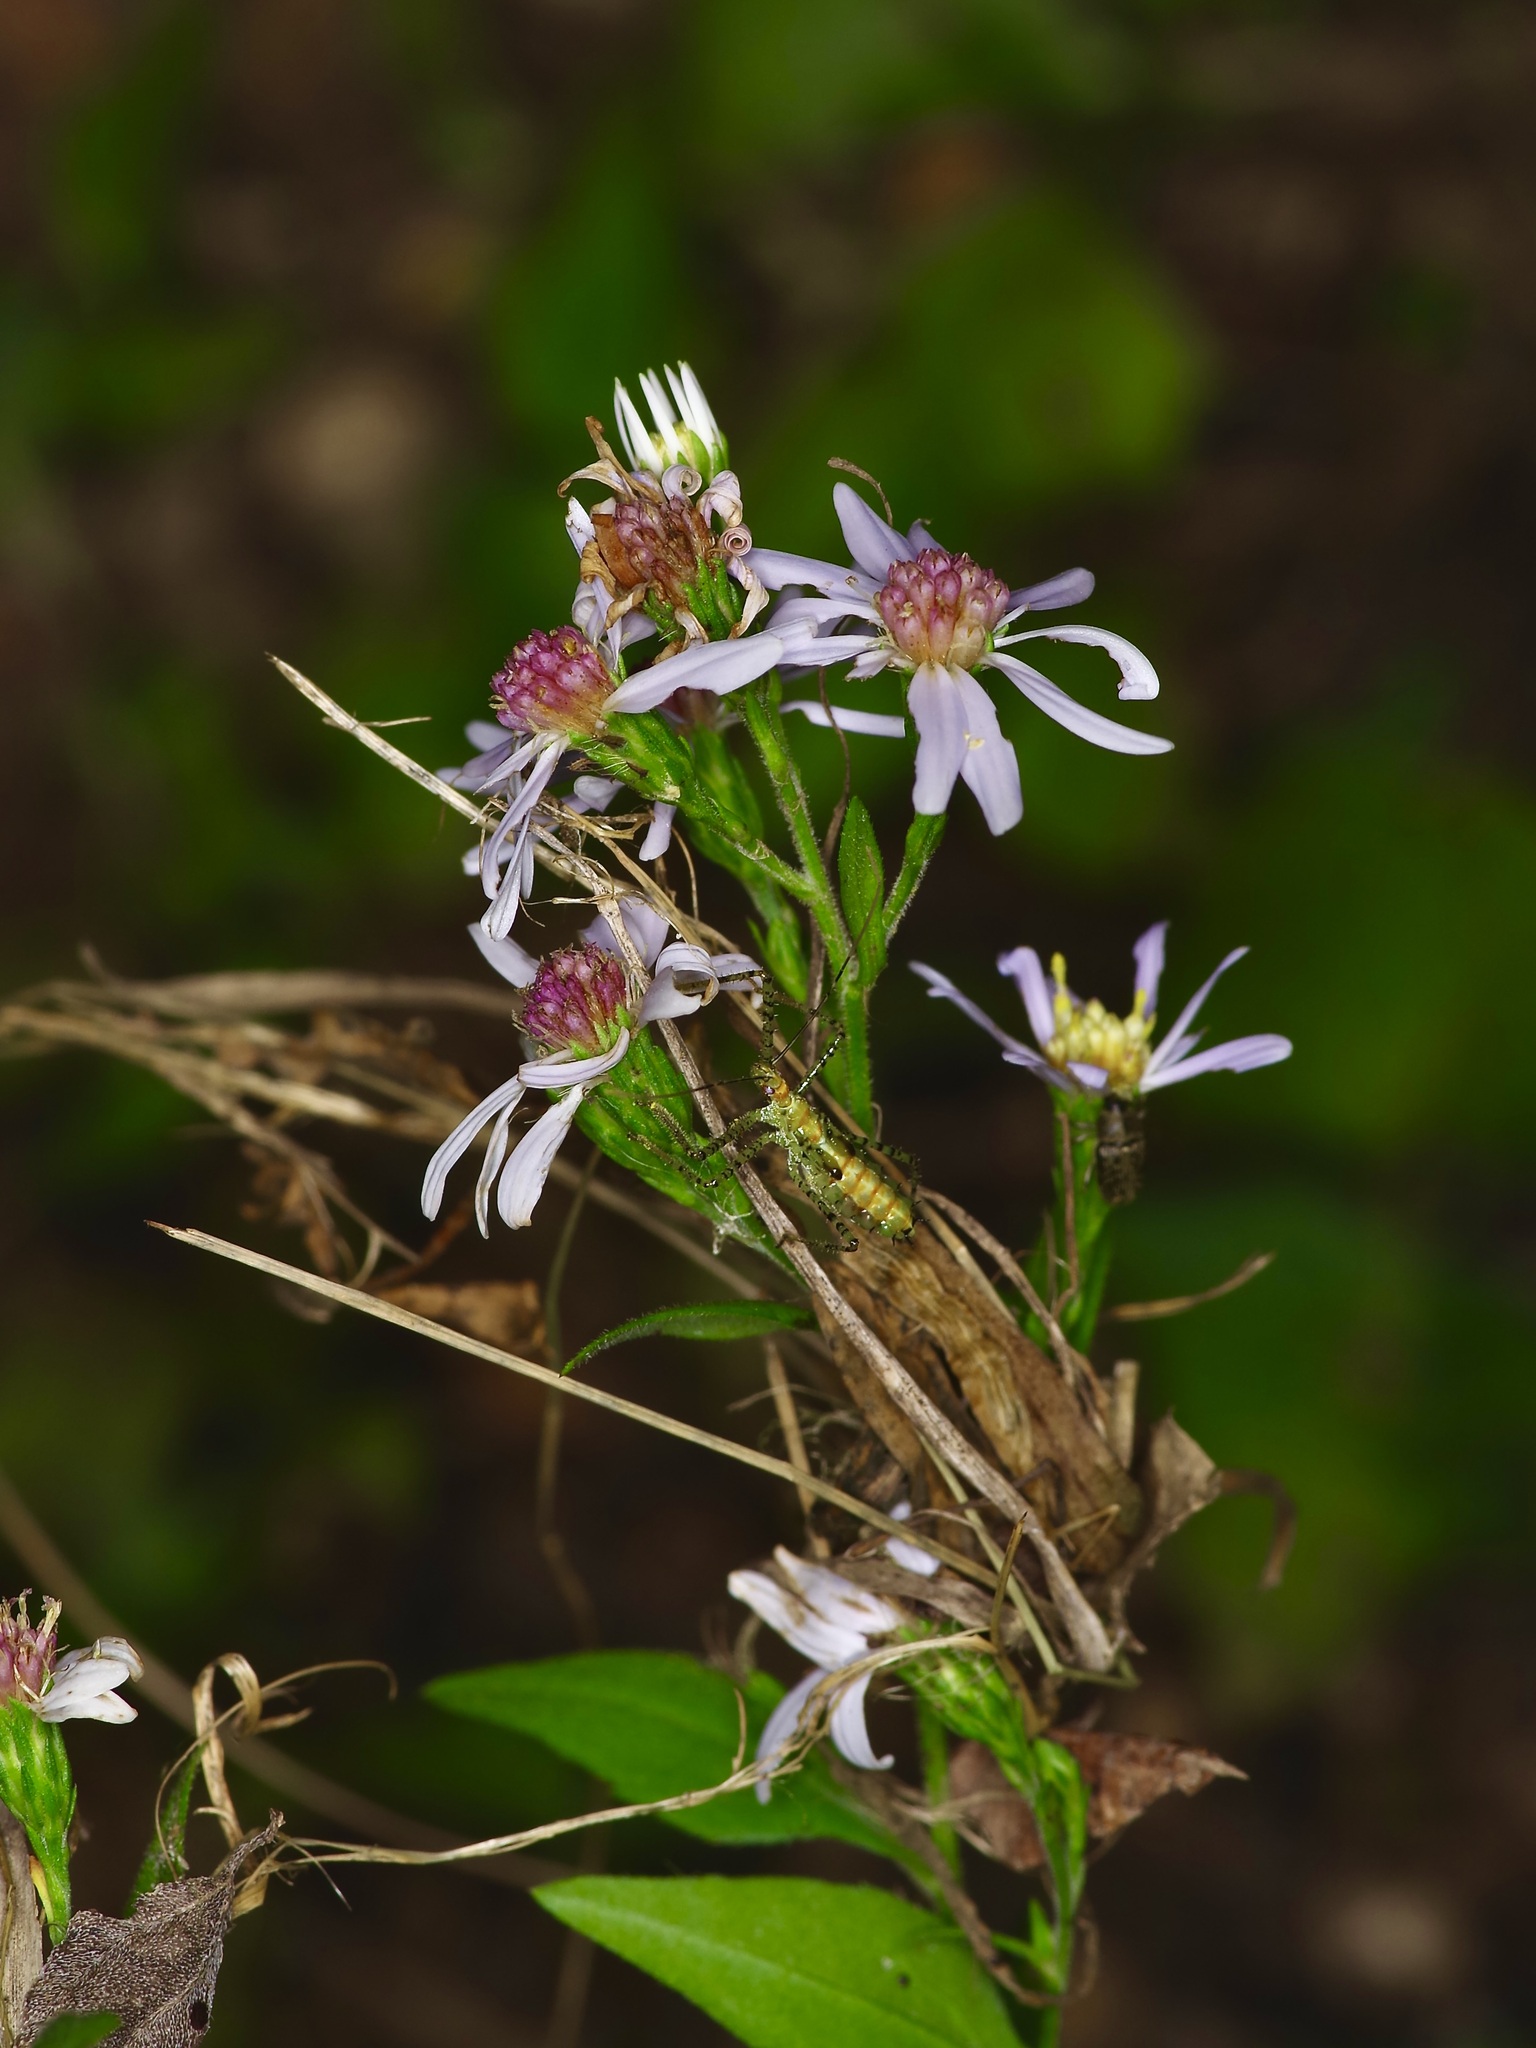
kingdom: Plantae
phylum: Tracheophyta
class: Magnoliopsida
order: Asterales
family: Asteraceae
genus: Symphyotrichum
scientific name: Symphyotrichum drummondii
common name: Drummond's aster
